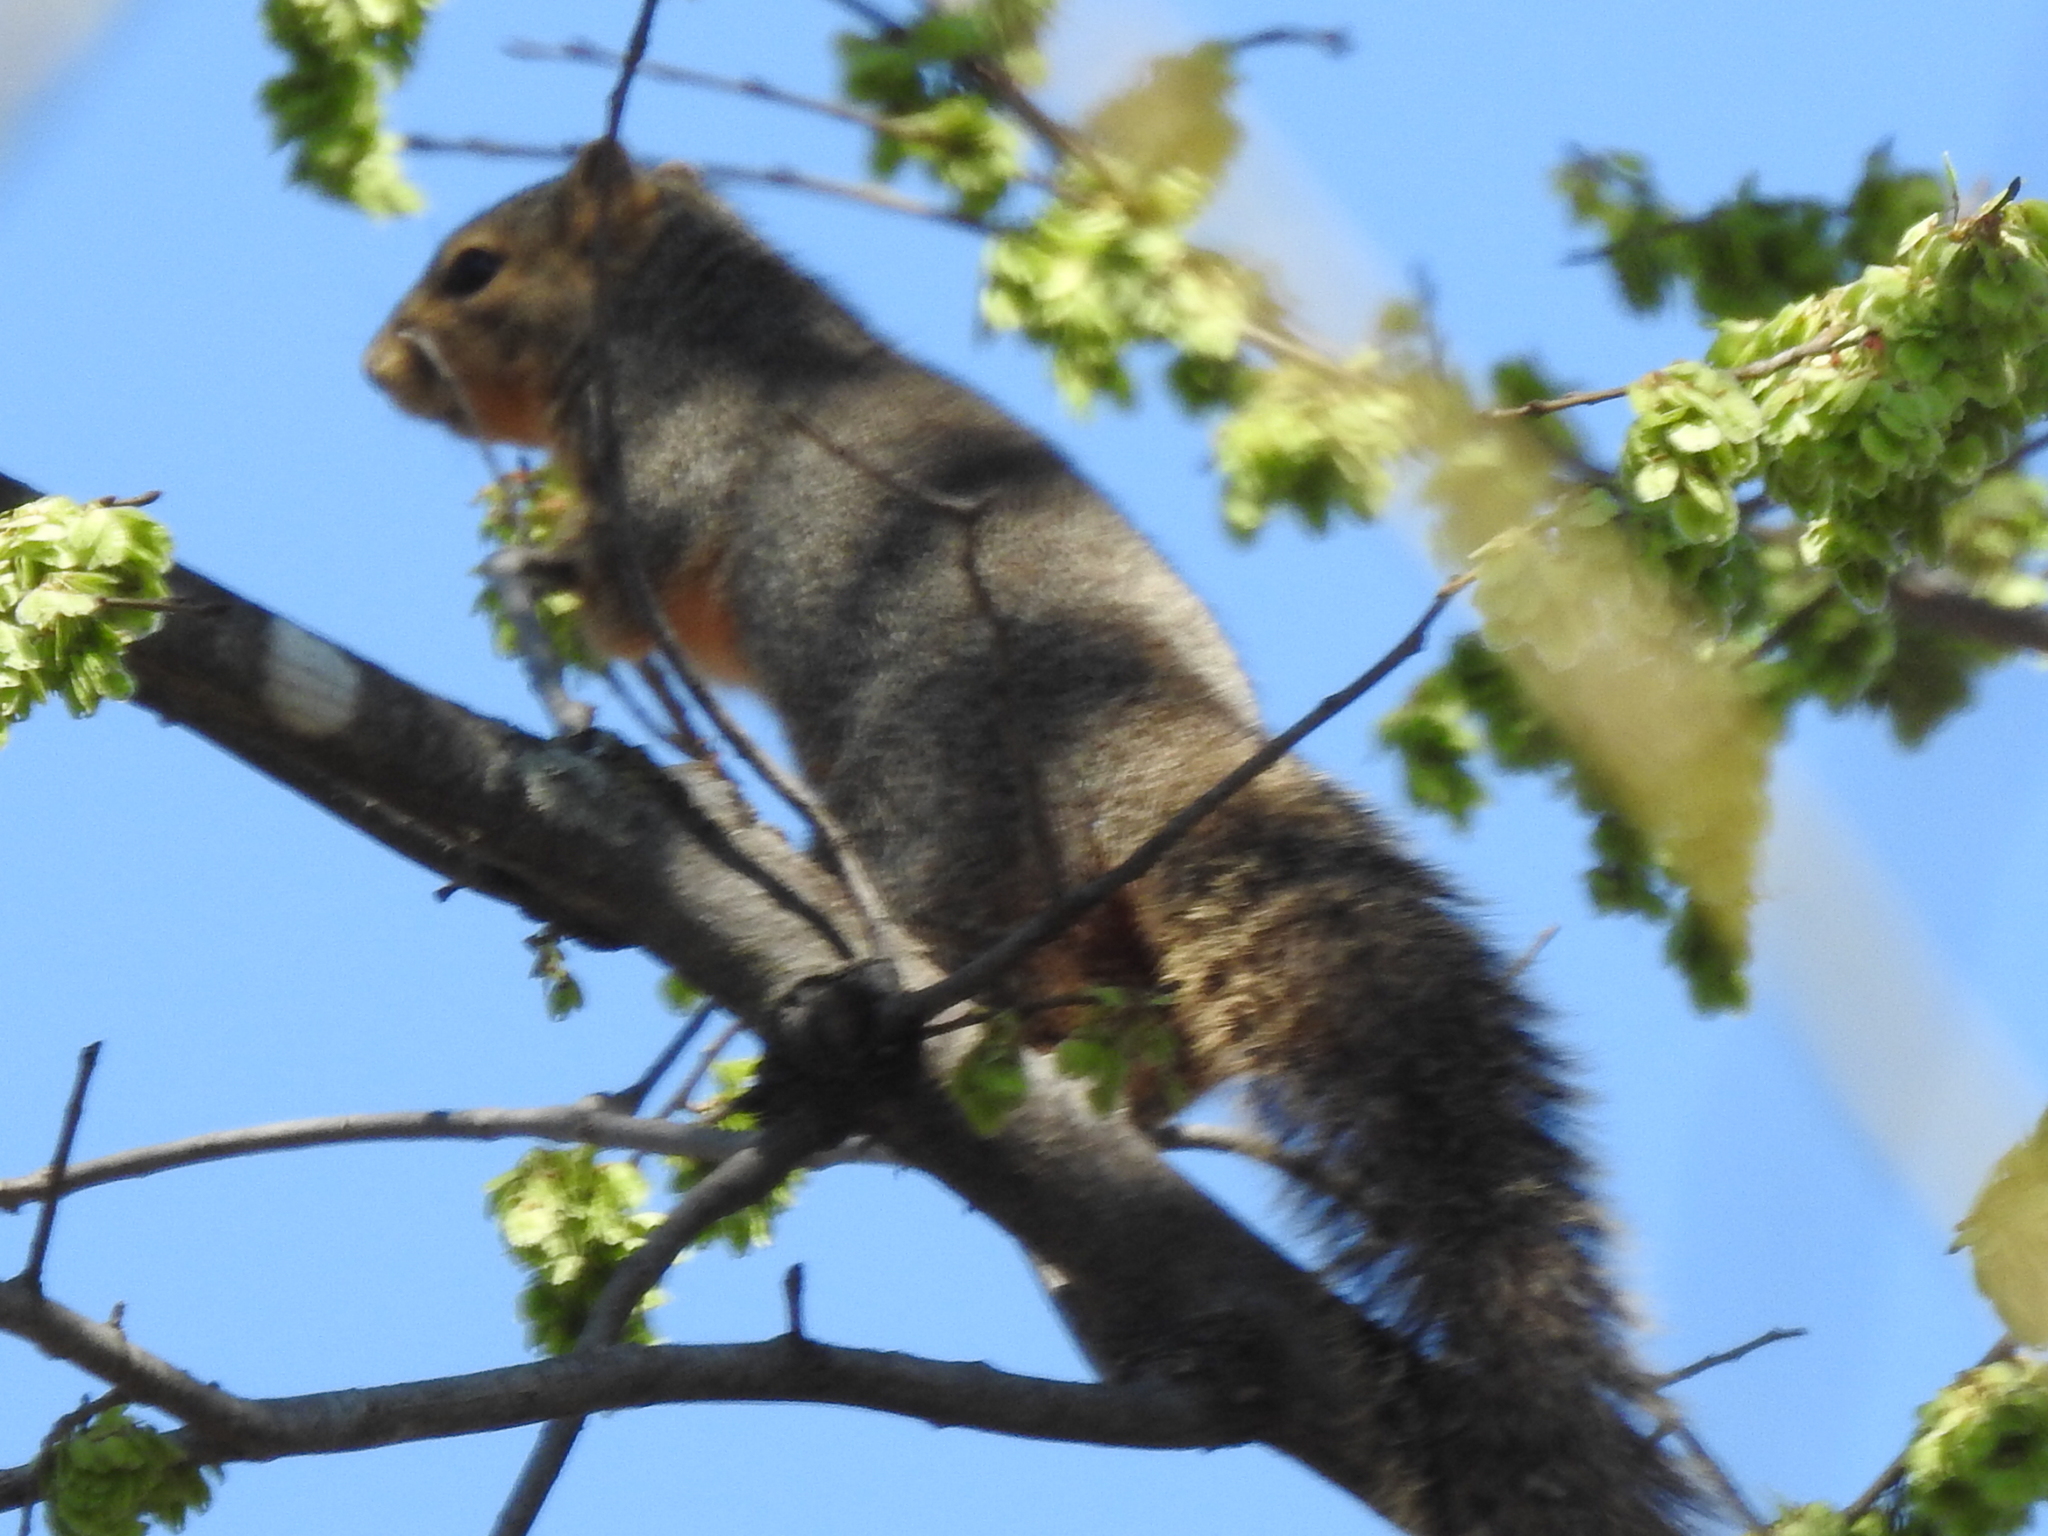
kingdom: Animalia
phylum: Chordata
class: Mammalia
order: Rodentia
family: Sciuridae
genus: Sciurus
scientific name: Sciurus niger
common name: Fox squirrel
